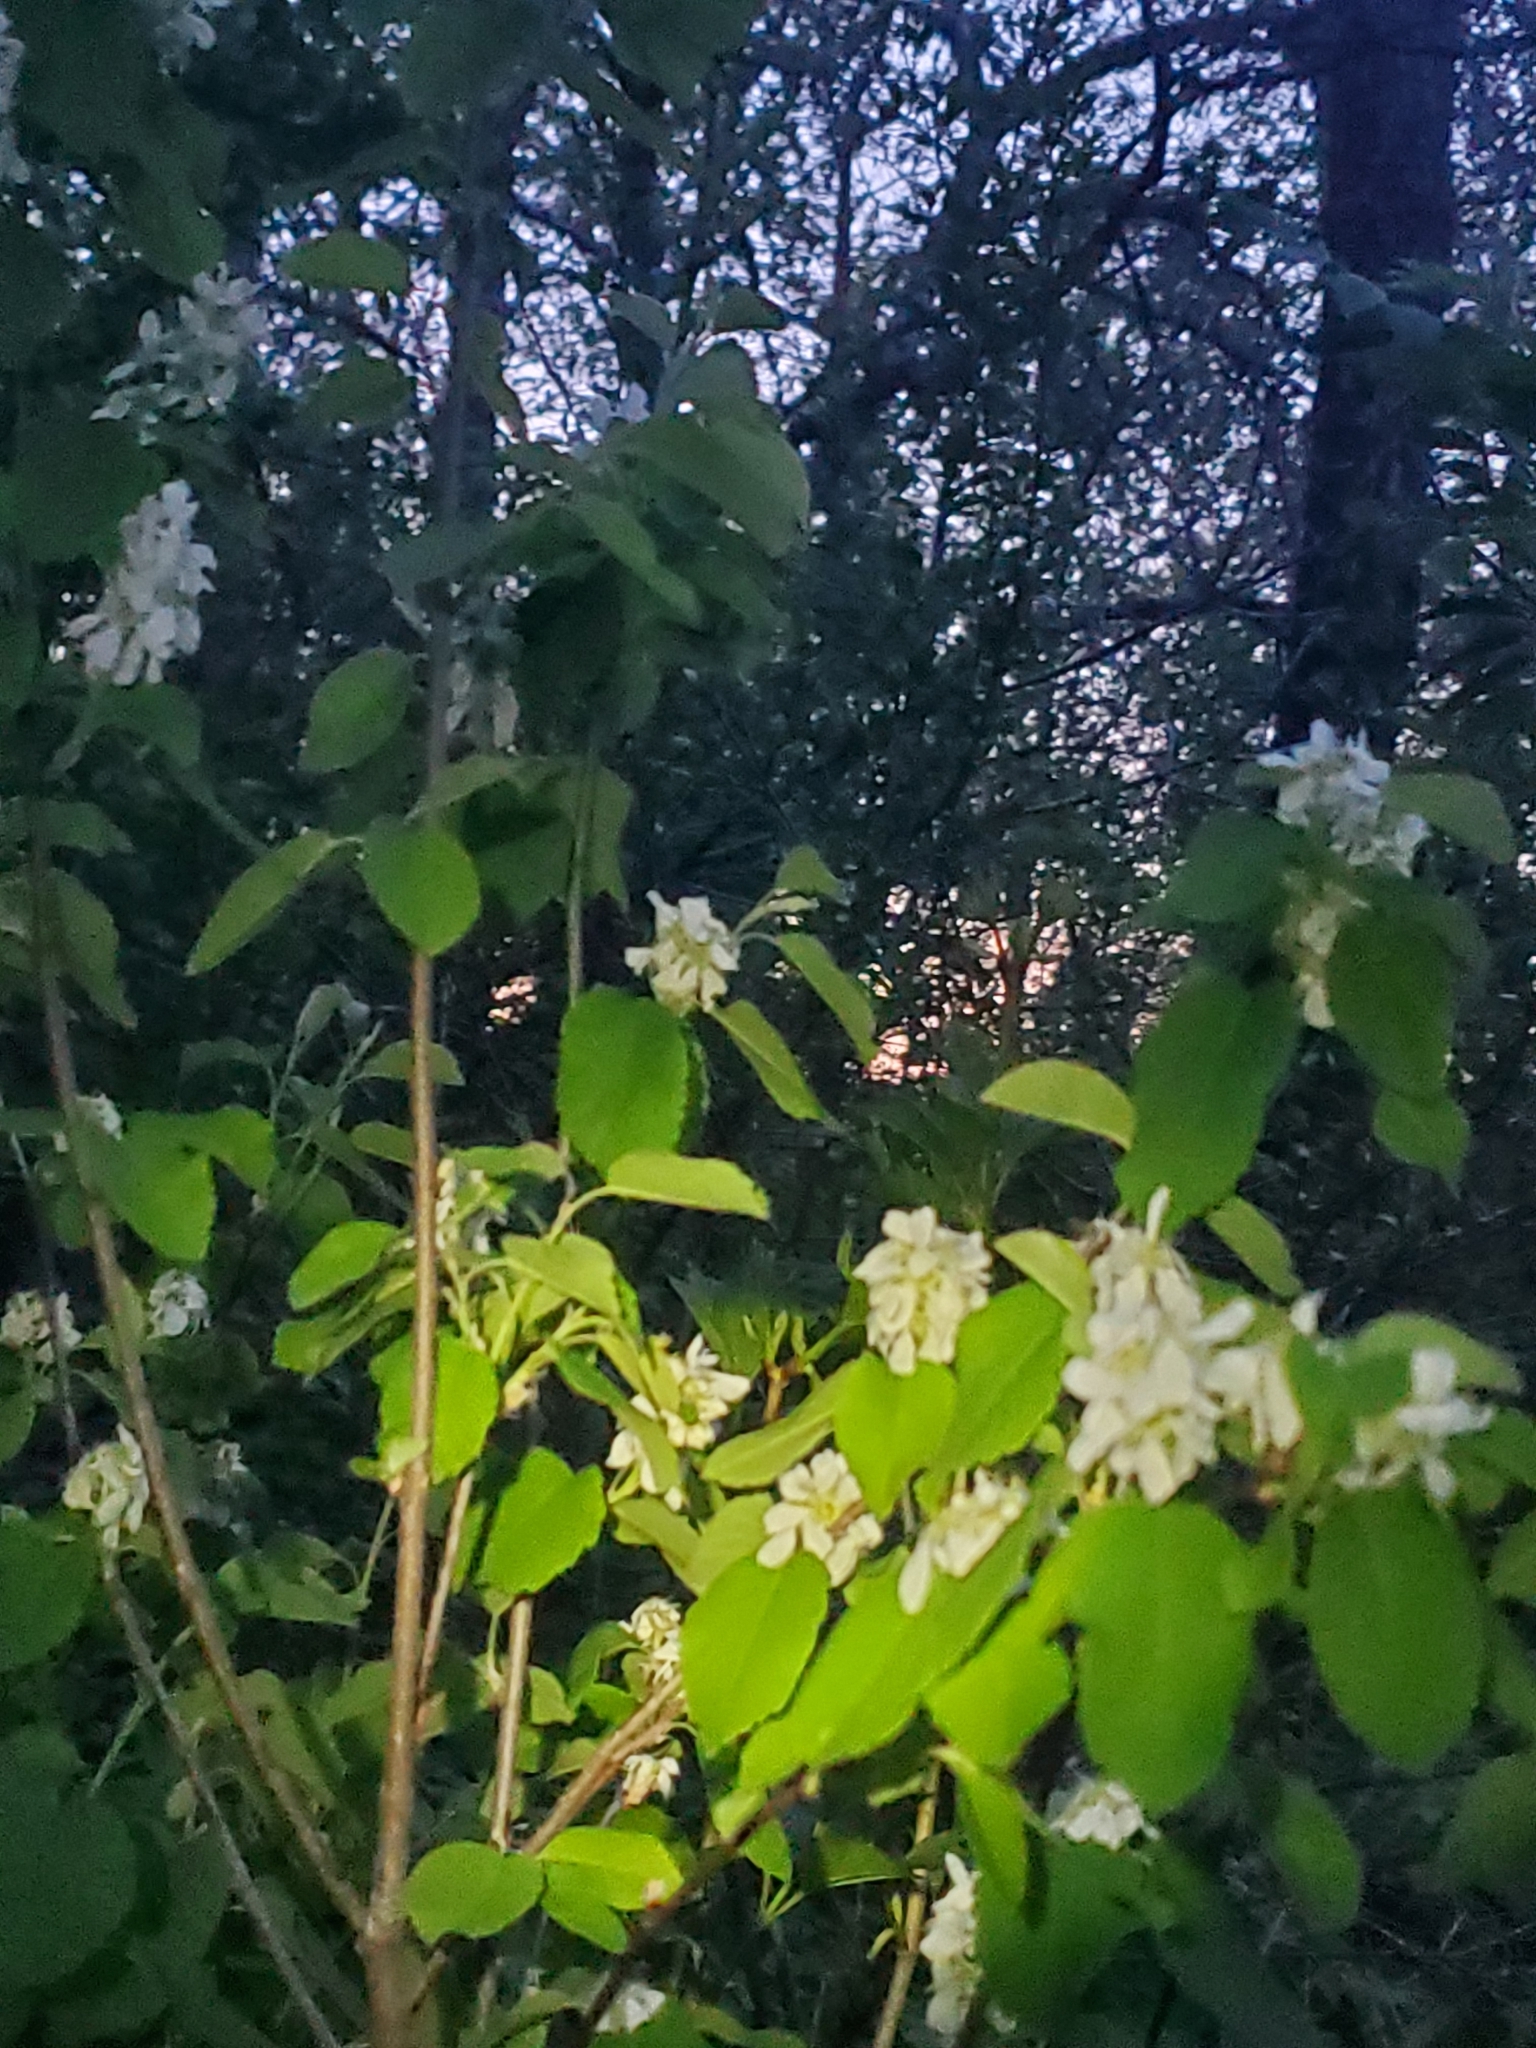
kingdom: Plantae
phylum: Tracheophyta
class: Magnoliopsida
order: Rosales
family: Rosaceae
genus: Amelanchier
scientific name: Amelanchier alnifolia
